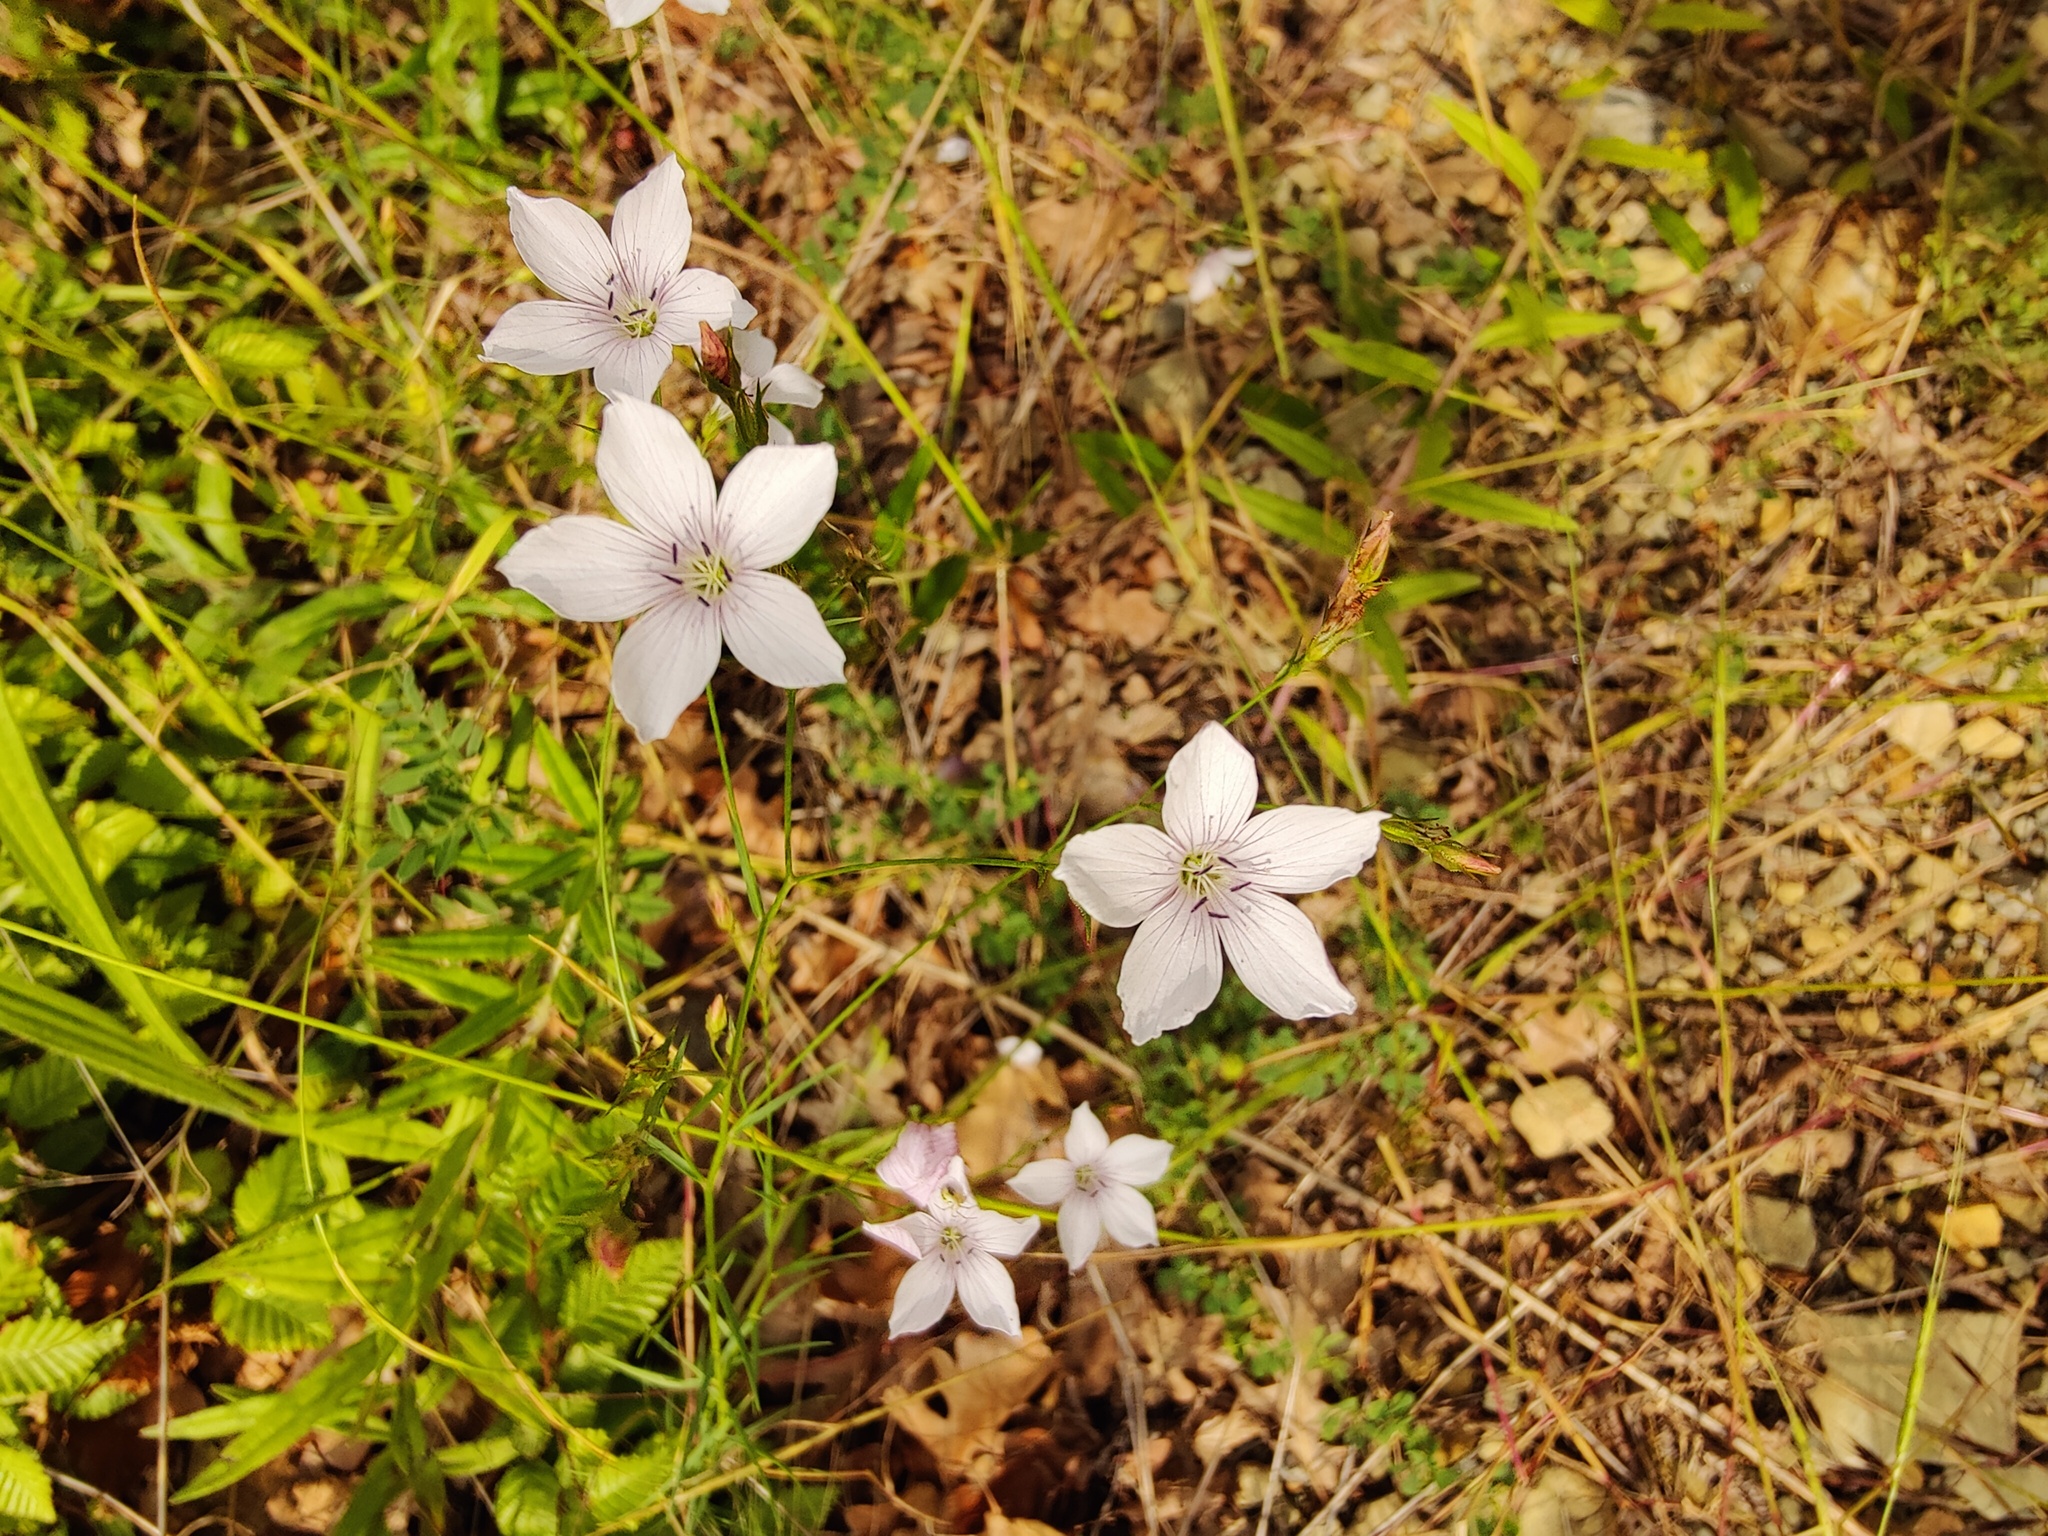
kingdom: Plantae
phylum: Tracheophyta
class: Magnoliopsida
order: Malpighiales
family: Linaceae
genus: Linum
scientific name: Linum tenuifolium
